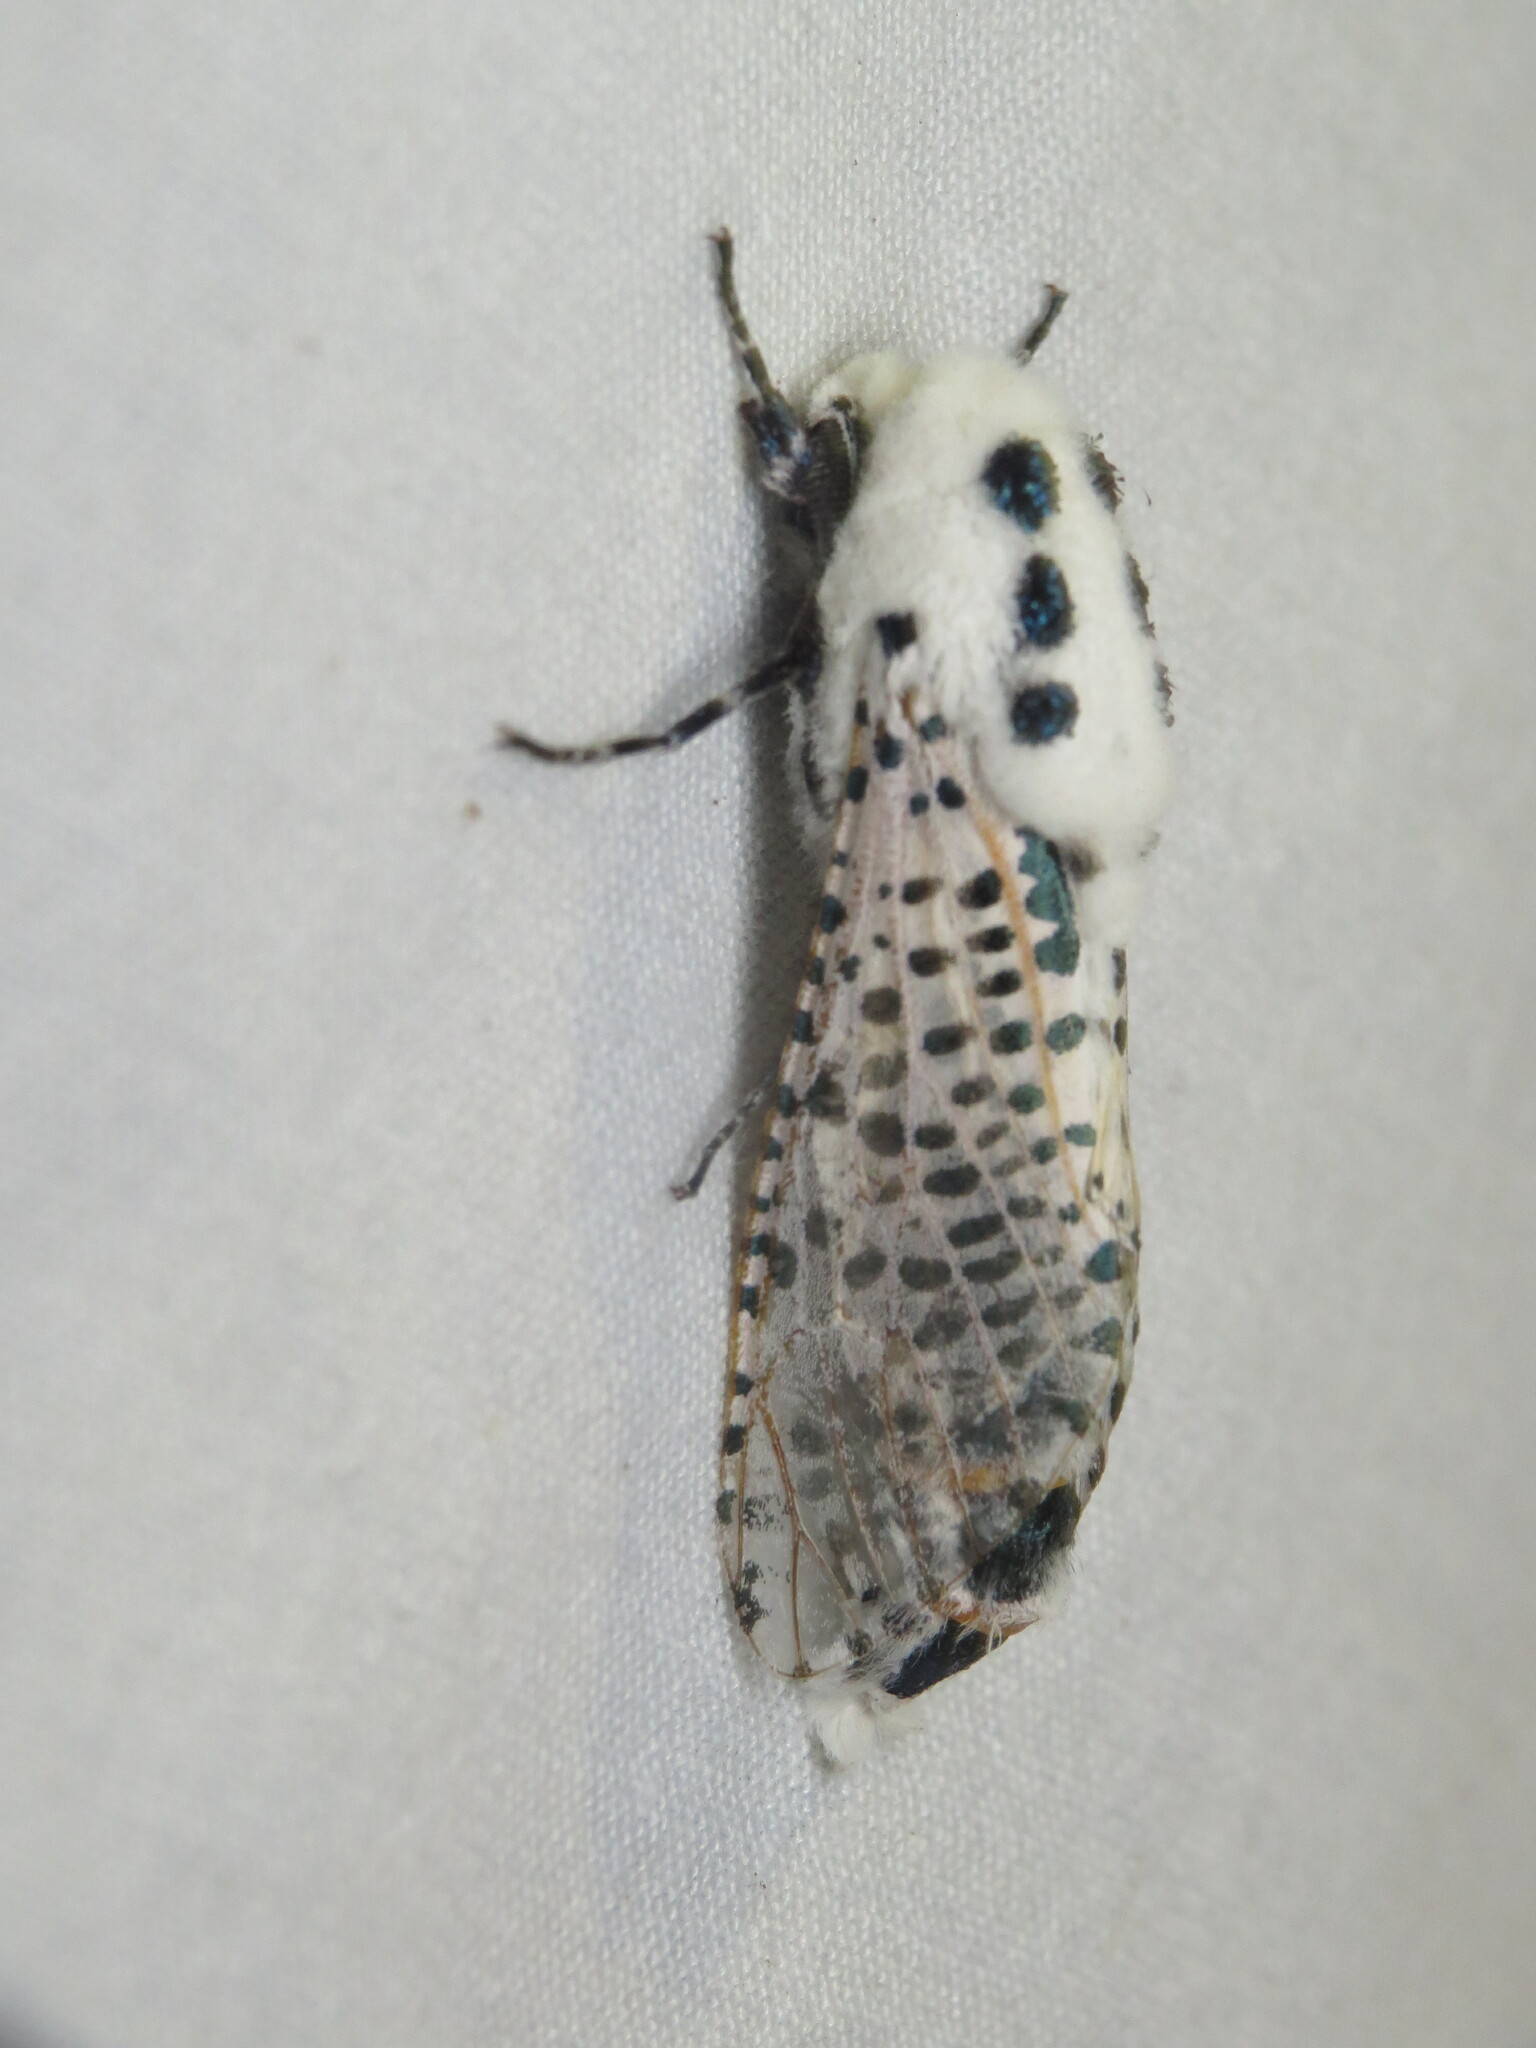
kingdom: Animalia
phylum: Arthropoda
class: Insecta
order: Lepidoptera
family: Cossidae
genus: Zeuzera
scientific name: Zeuzera pyrina
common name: Leopard moth
